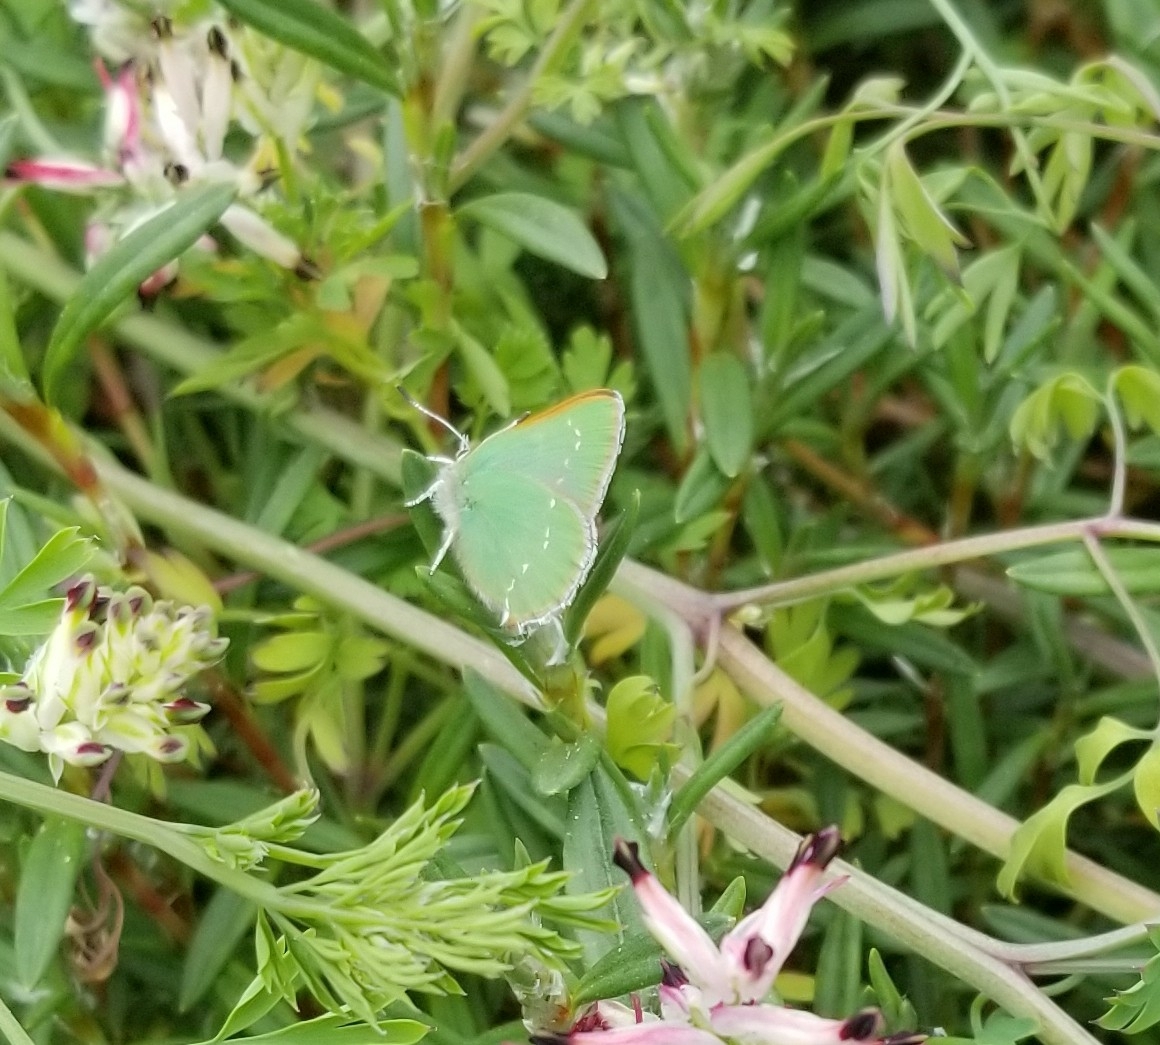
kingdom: Animalia
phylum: Arthropoda
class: Insecta
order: Lepidoptera
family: Lycaenidae
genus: Callophrys
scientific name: Callophrys viridis
